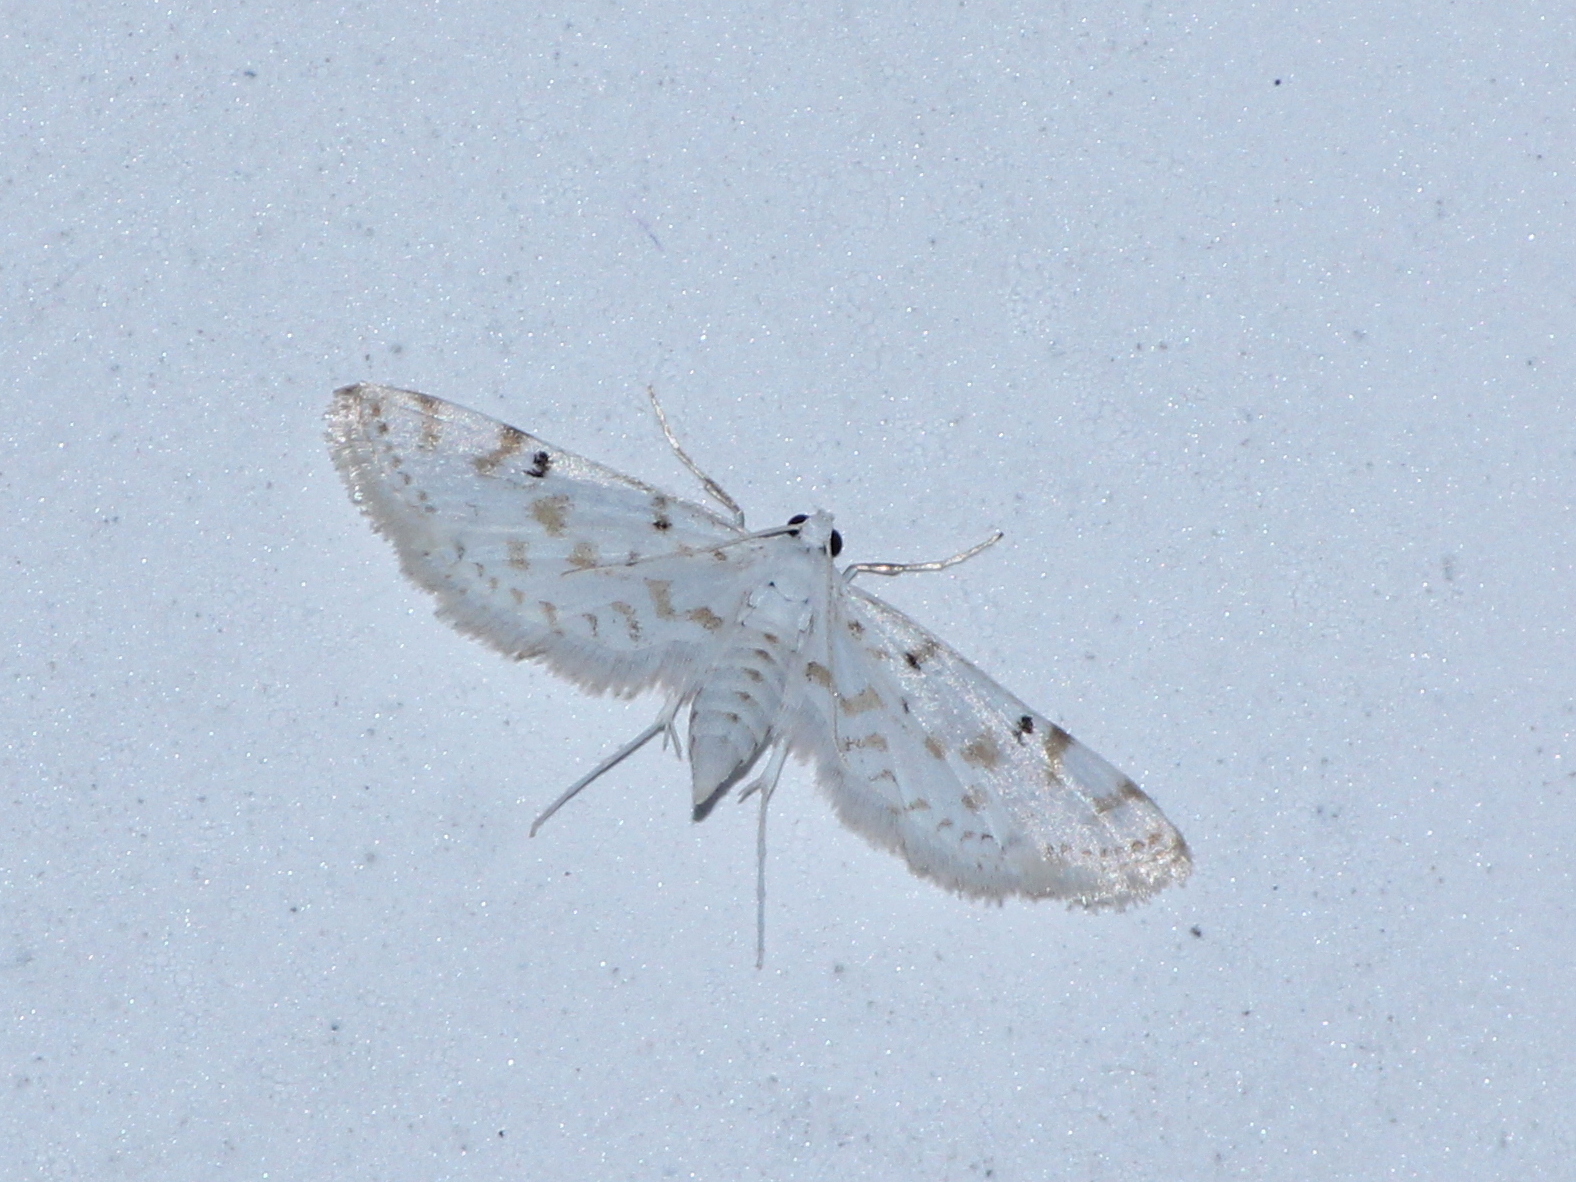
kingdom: Animalia
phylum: Arthropoda
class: Insecta
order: Lepidoptera
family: Crambidae
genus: Parapoynx
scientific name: Parapoynx stagnalis
